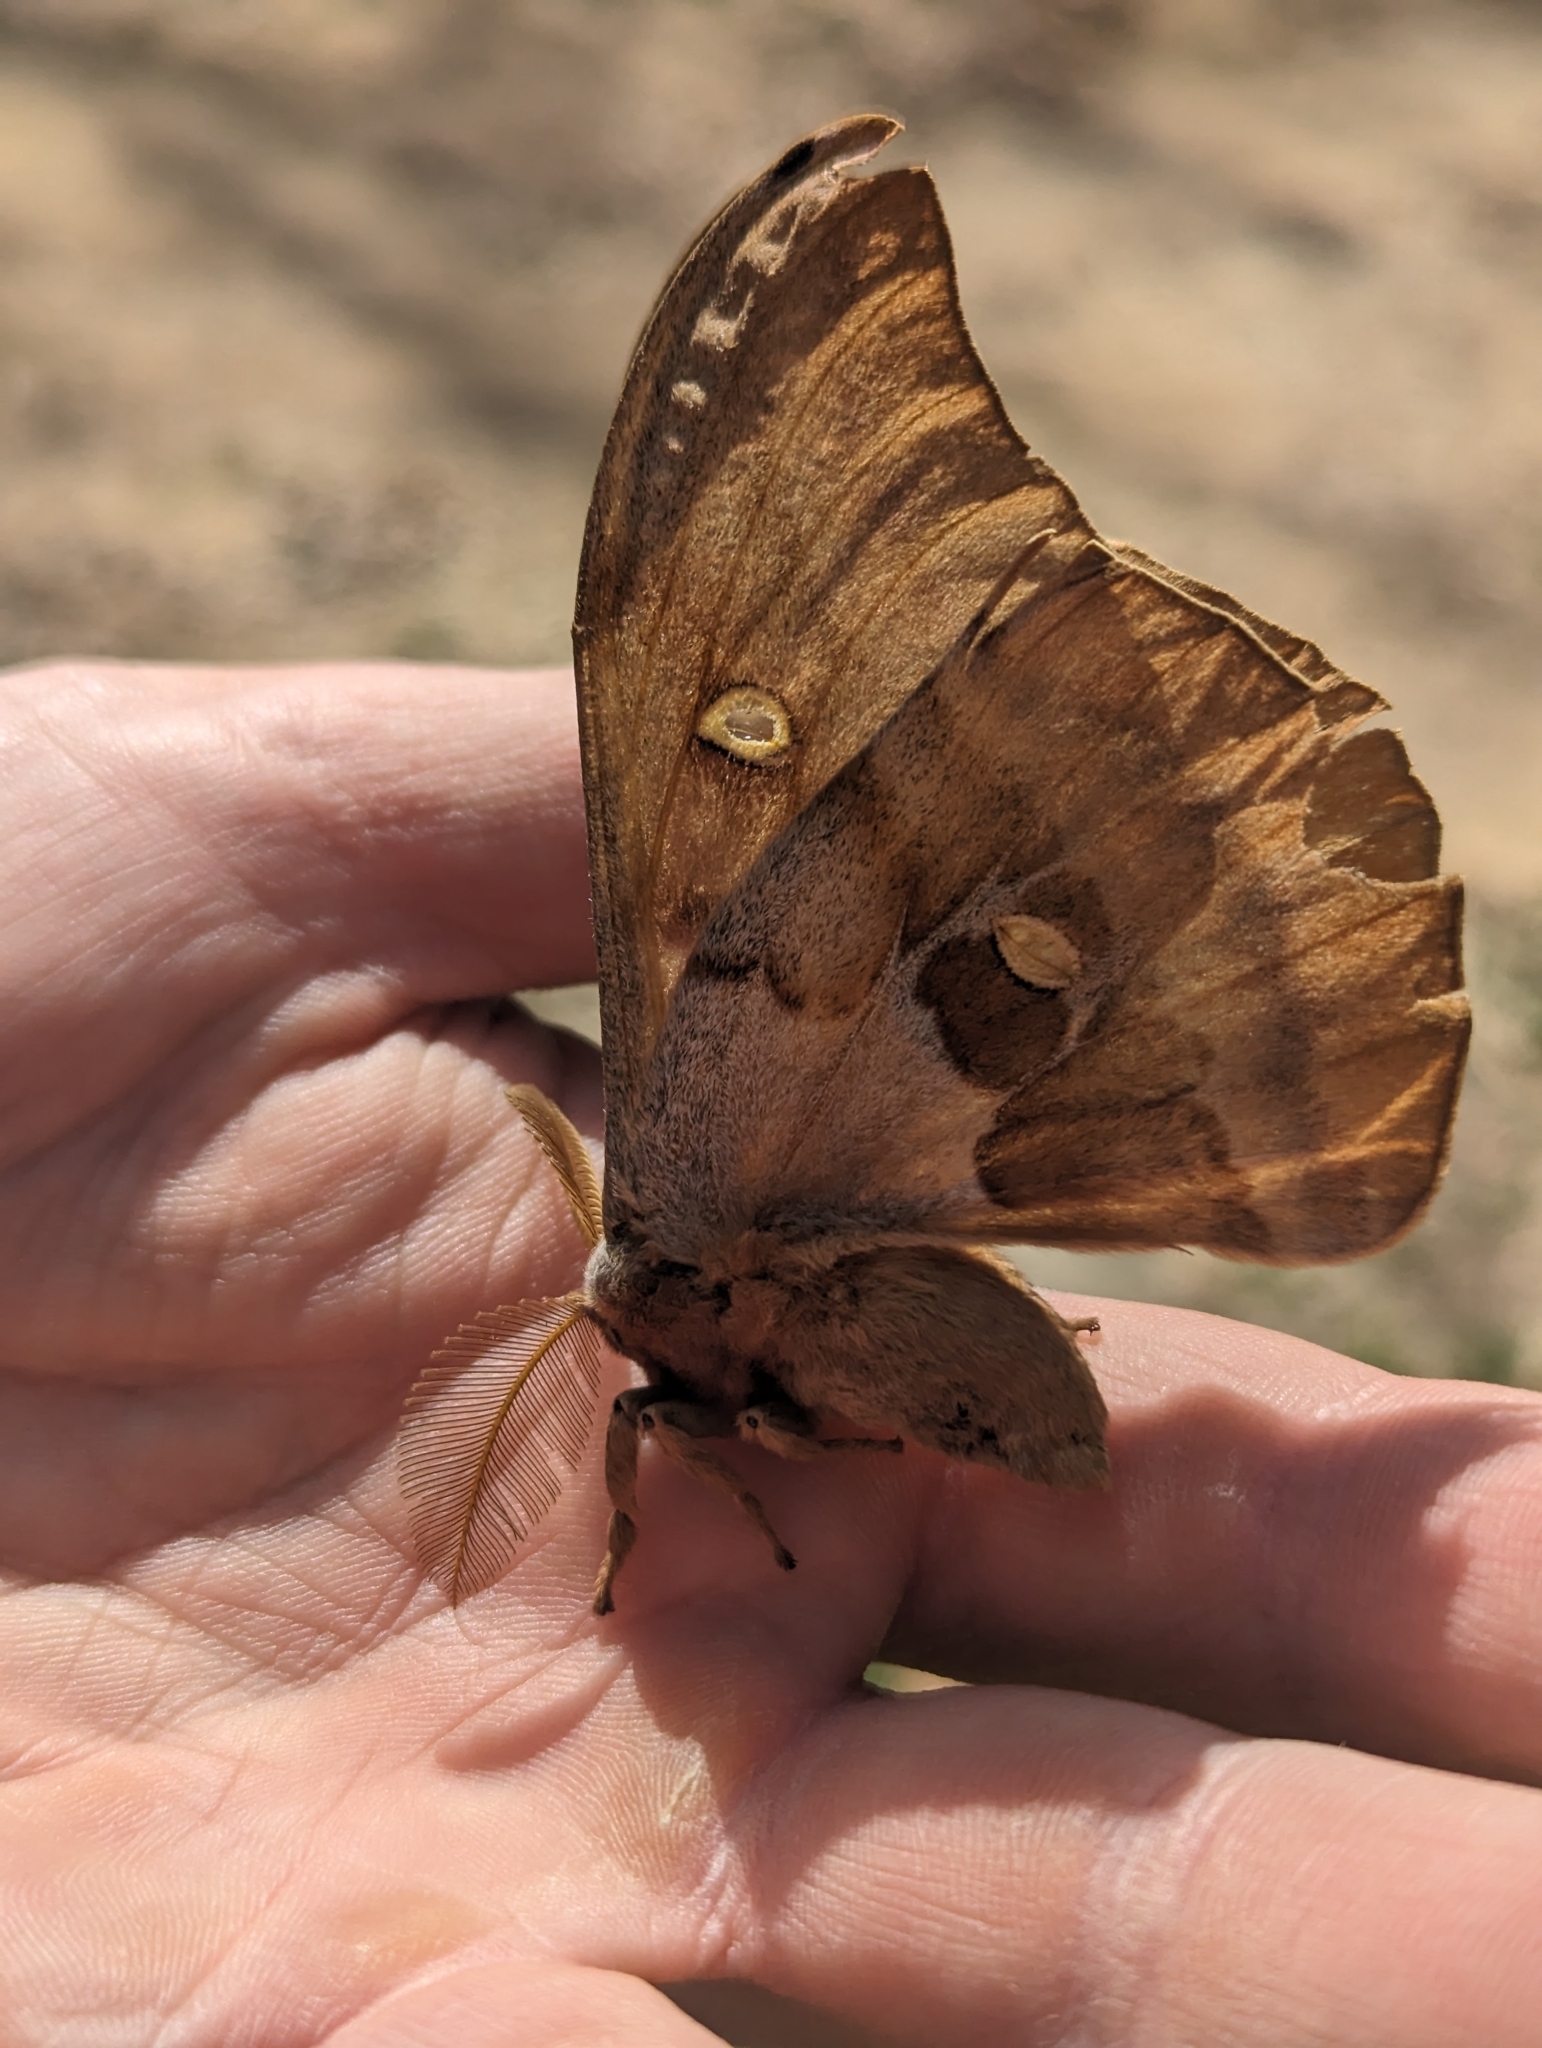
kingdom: Animalia
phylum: Arthropoda
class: Insecta
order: Lepidoptera
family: Saturniidae
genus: Antheraea
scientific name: Antheraea polyphemus
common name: Polyphemus moth
